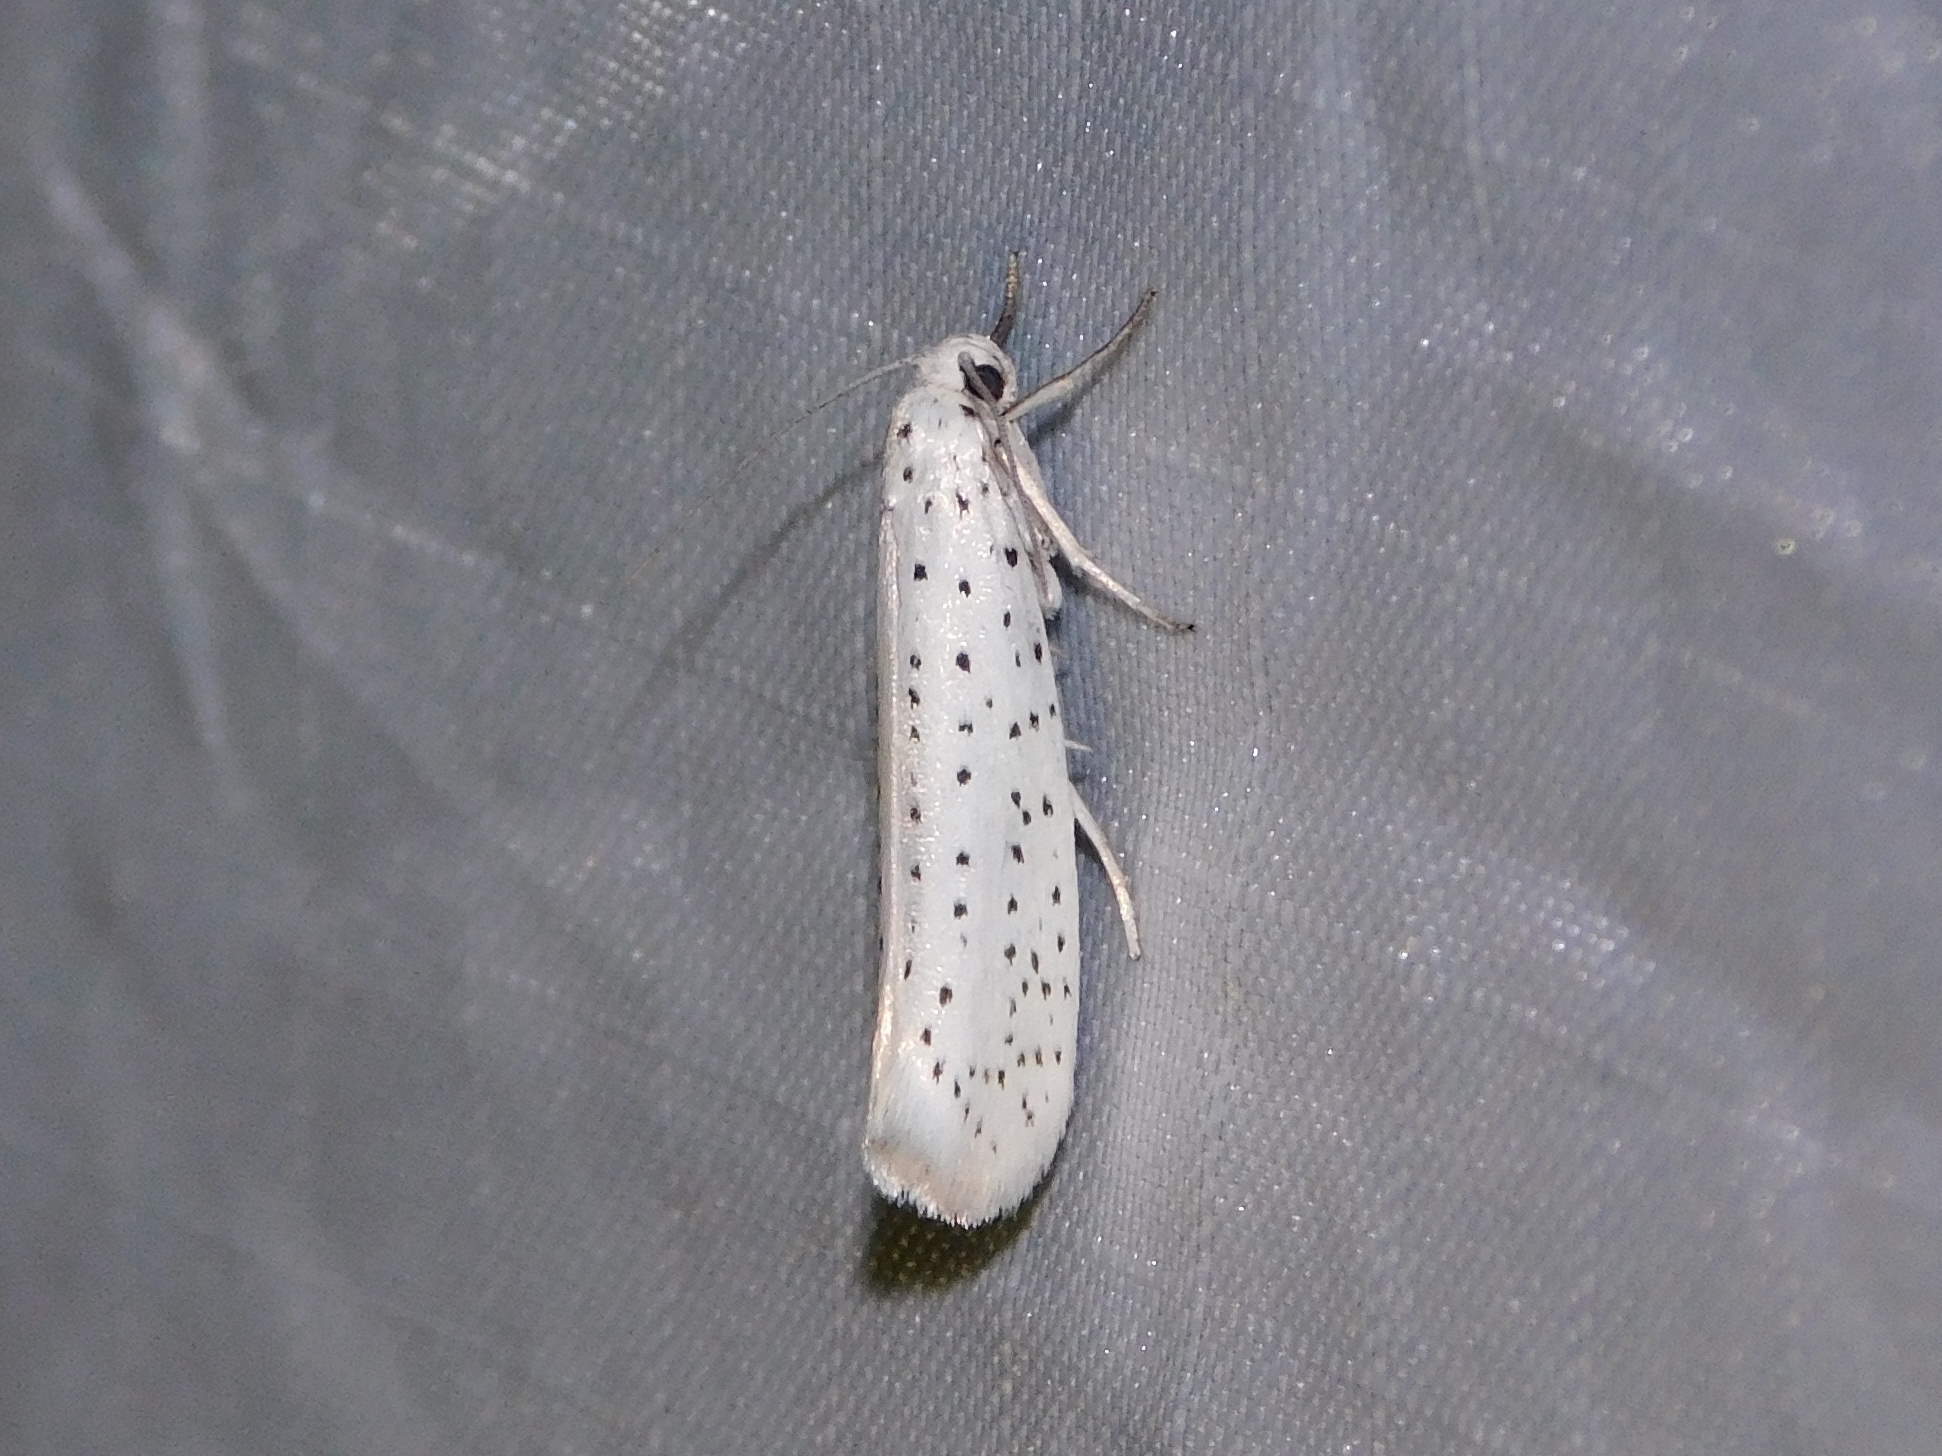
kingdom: Animalia
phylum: Arthropoda
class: Insecta
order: Lepidoptera
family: Yponomeutidae
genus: Yponomeuta
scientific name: Yponomeuta evonymella
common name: Bird-cherry ermine
